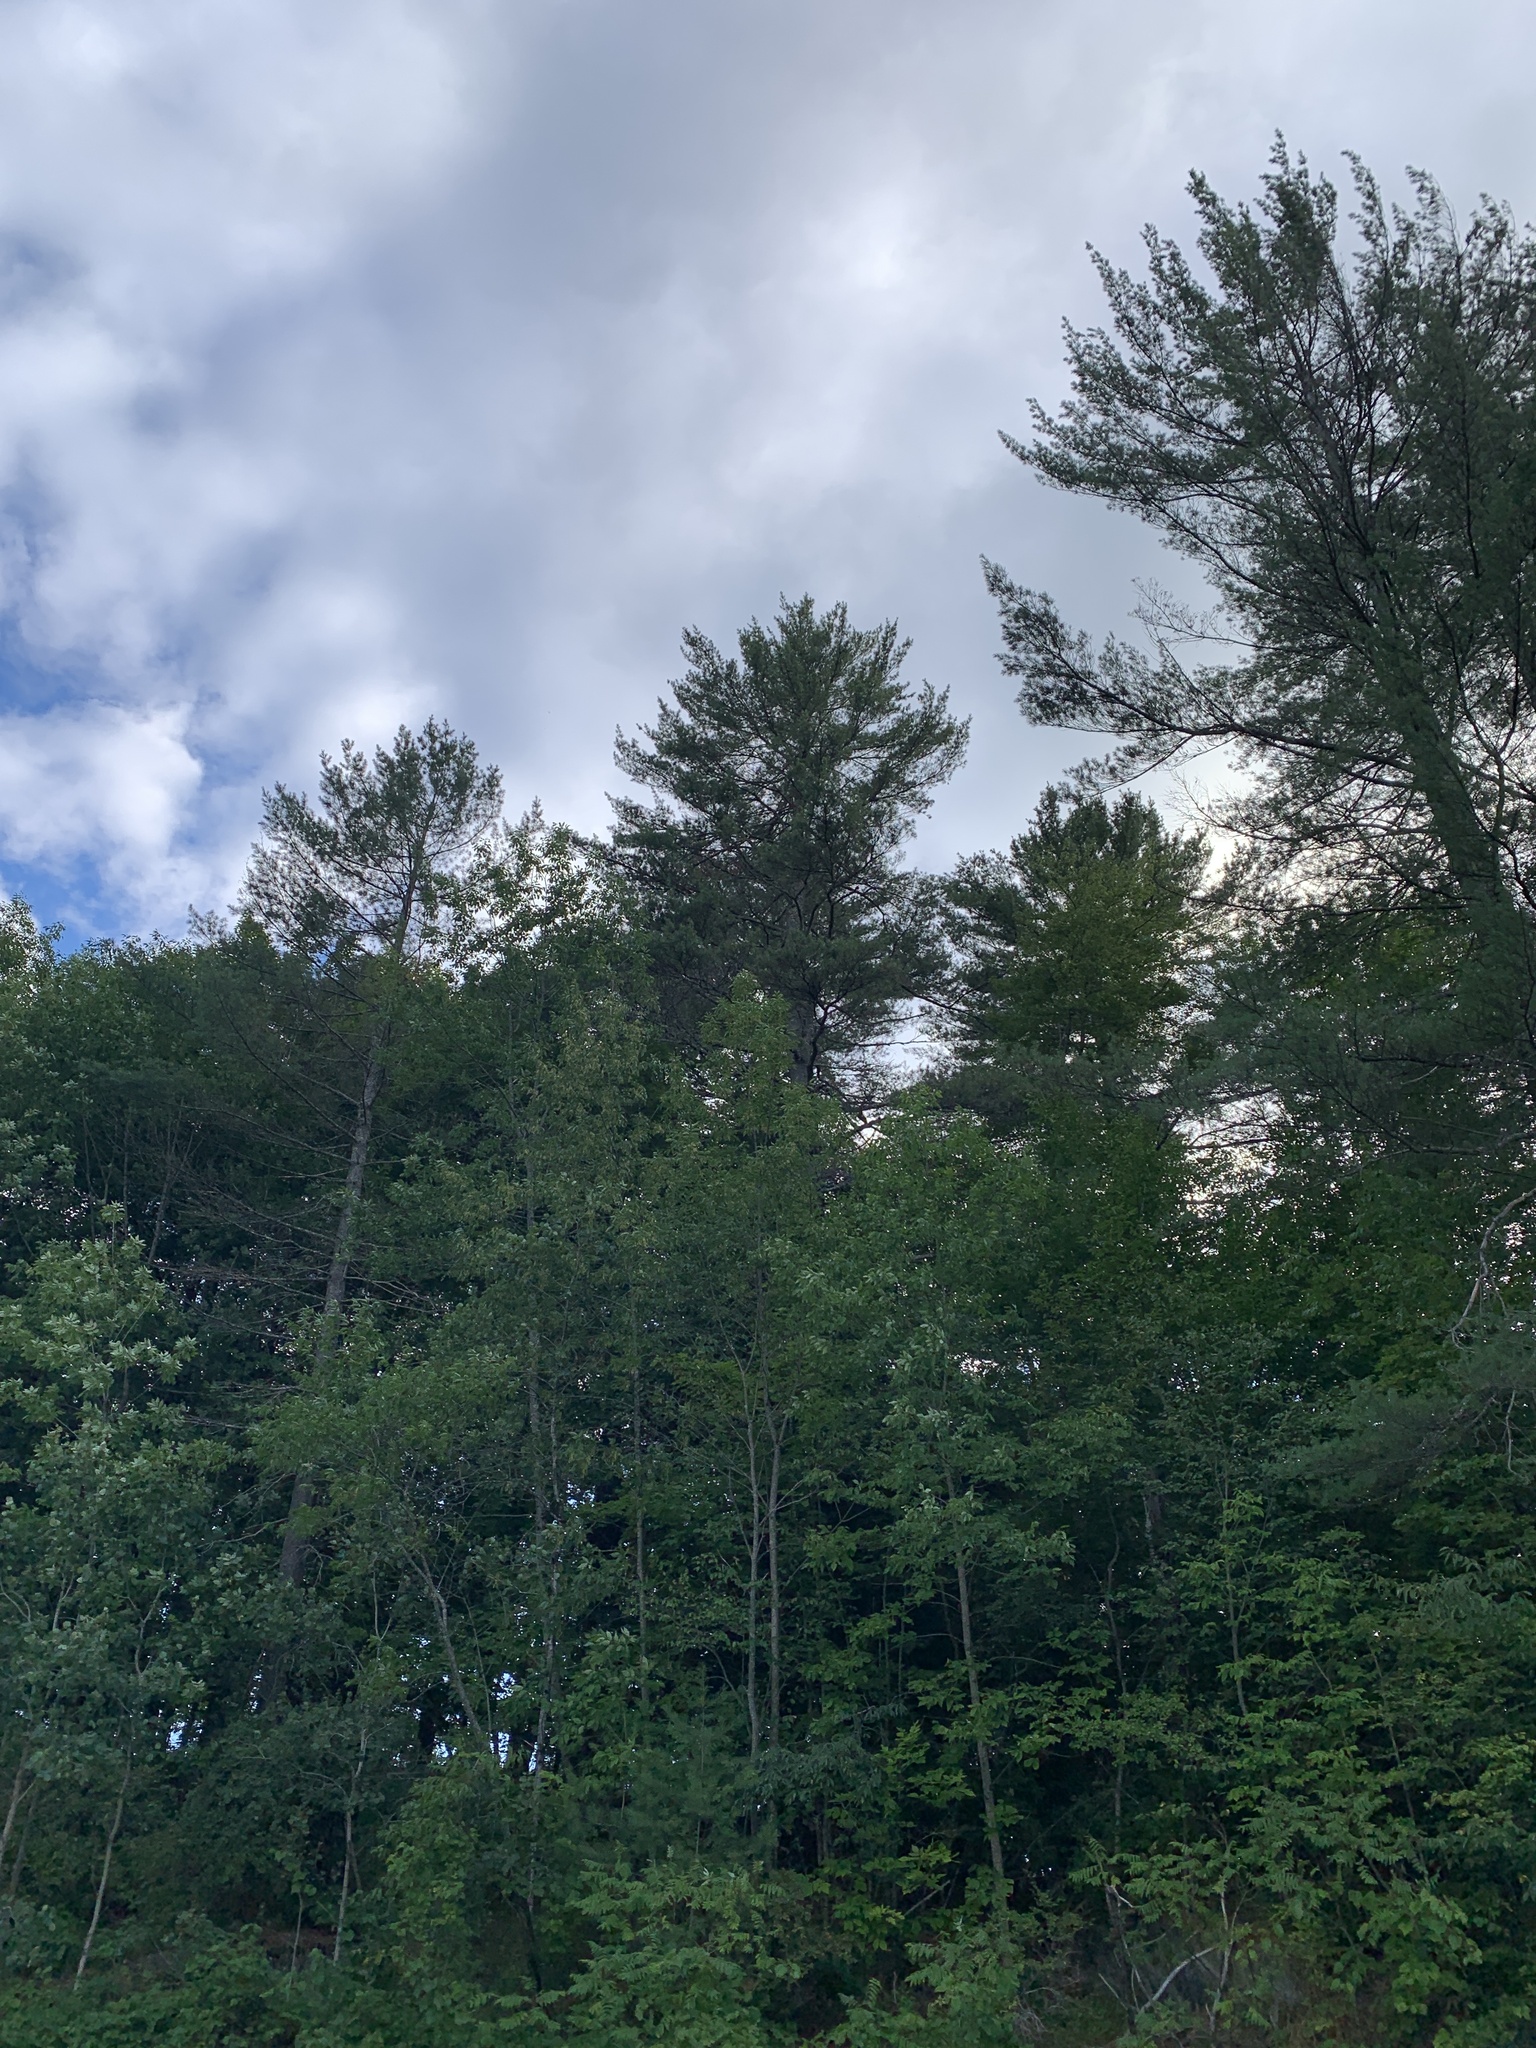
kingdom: Plantae
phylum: Tracheophyta
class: Pinopsida
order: Pinales
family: Pinaceae
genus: Pinus
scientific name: Pinus strobus
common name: Weymouth pine
